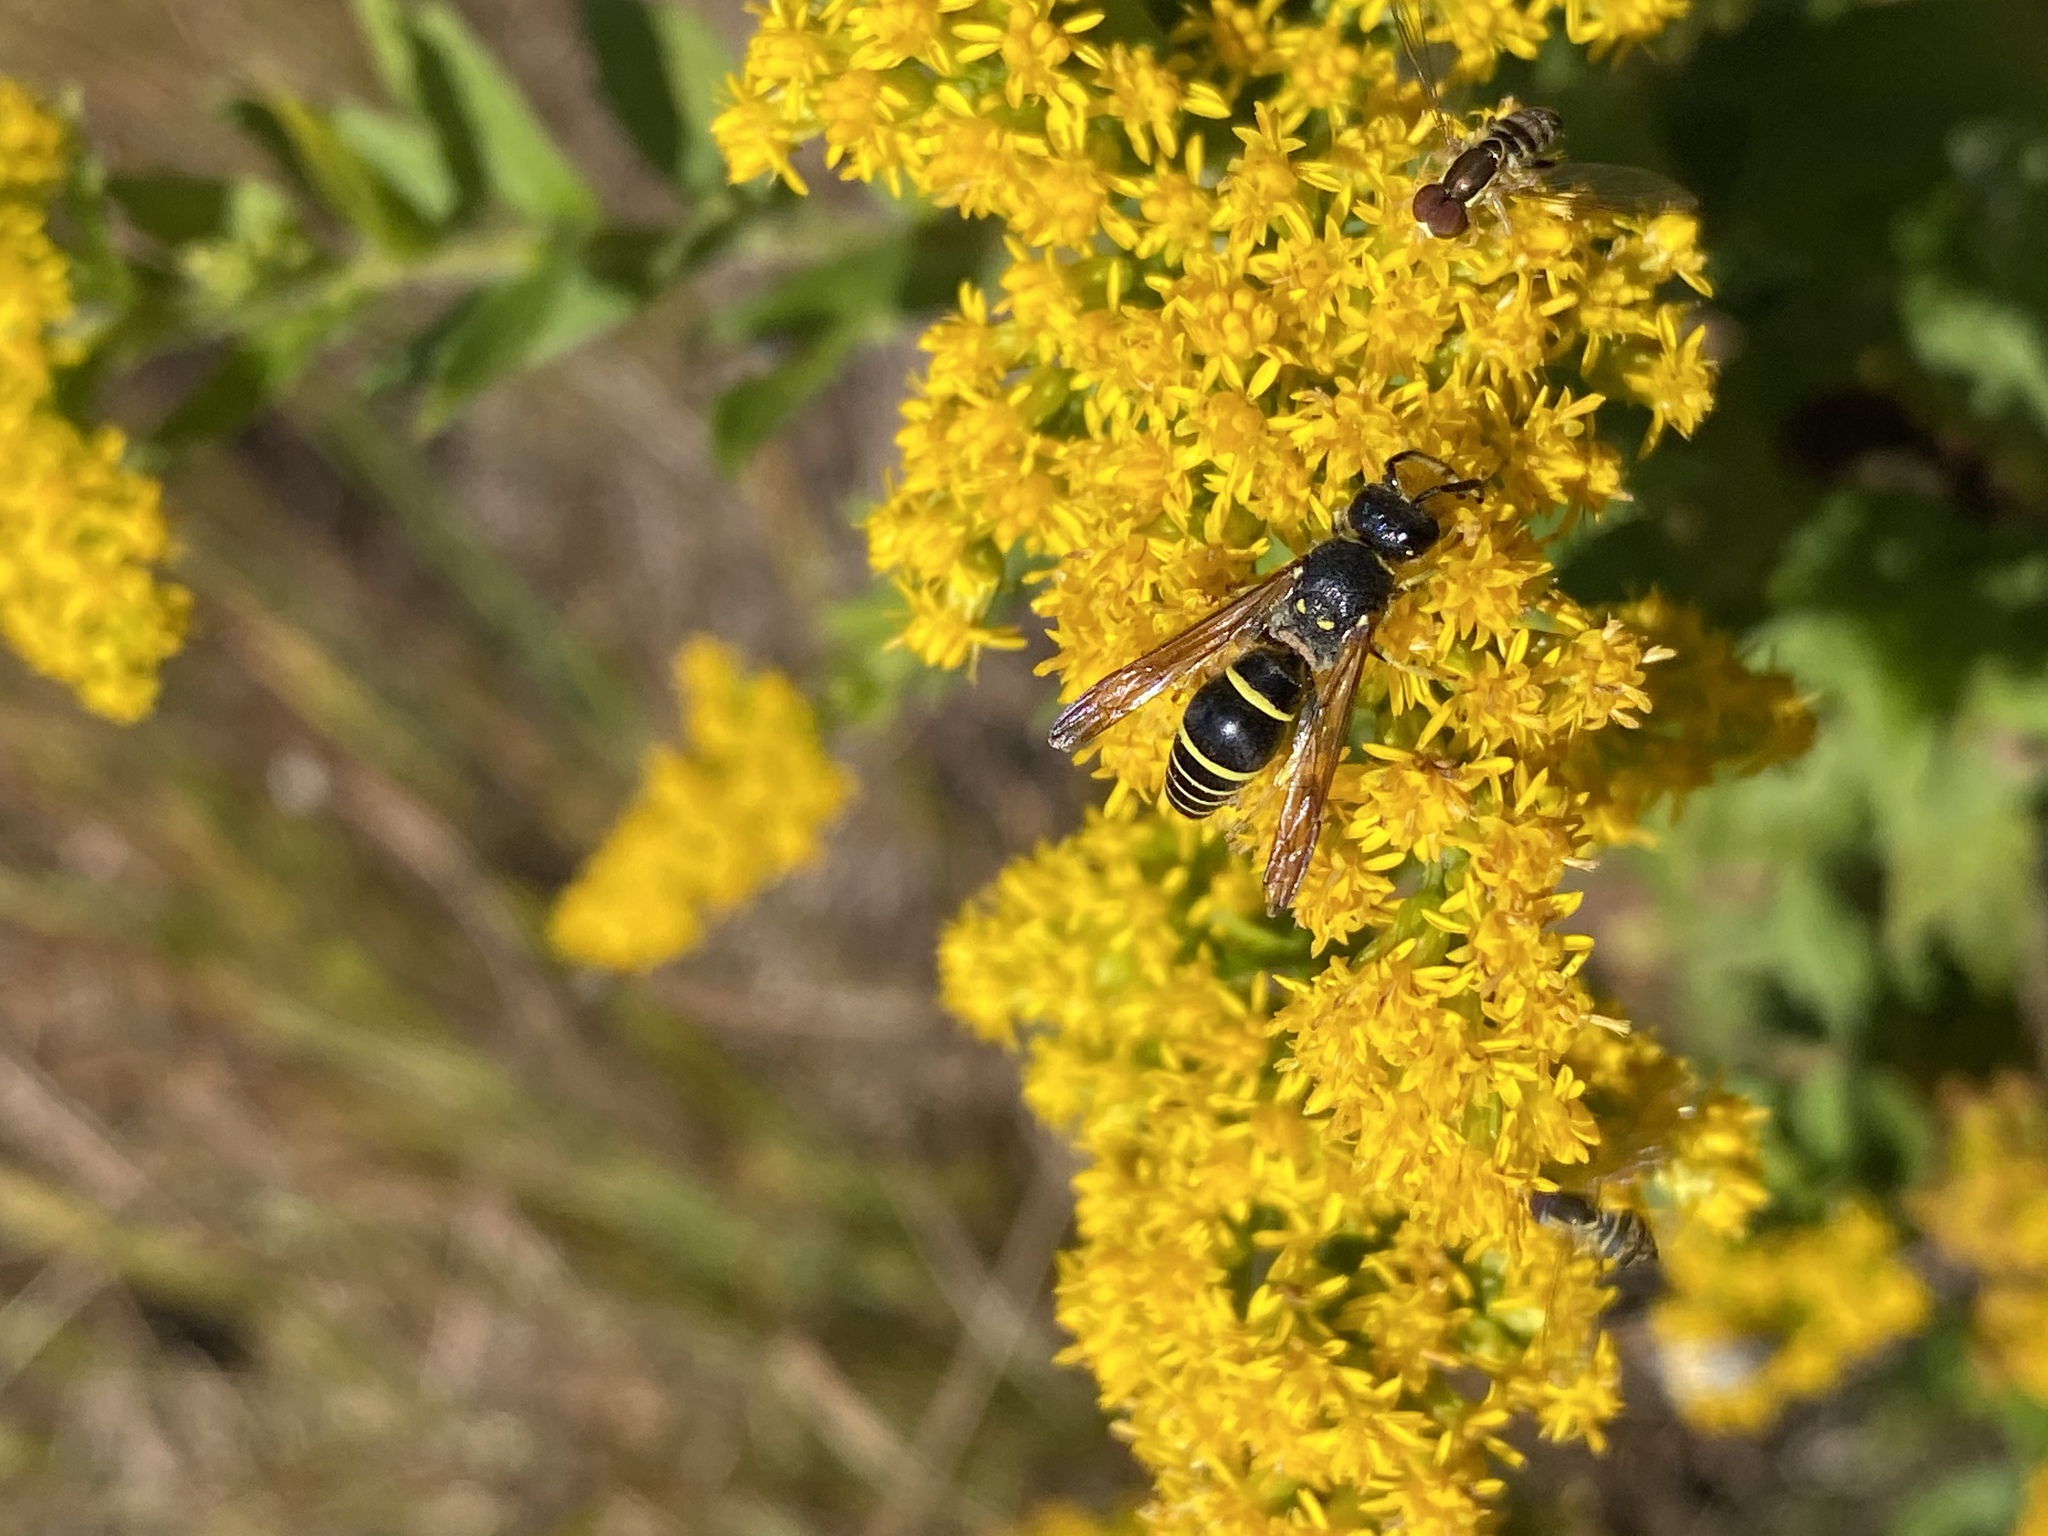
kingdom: Animalia
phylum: Arthropoda
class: Insecta
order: Hymenoptera
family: Vespidae
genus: Ancistrocerus
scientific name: Ancistrocerus
